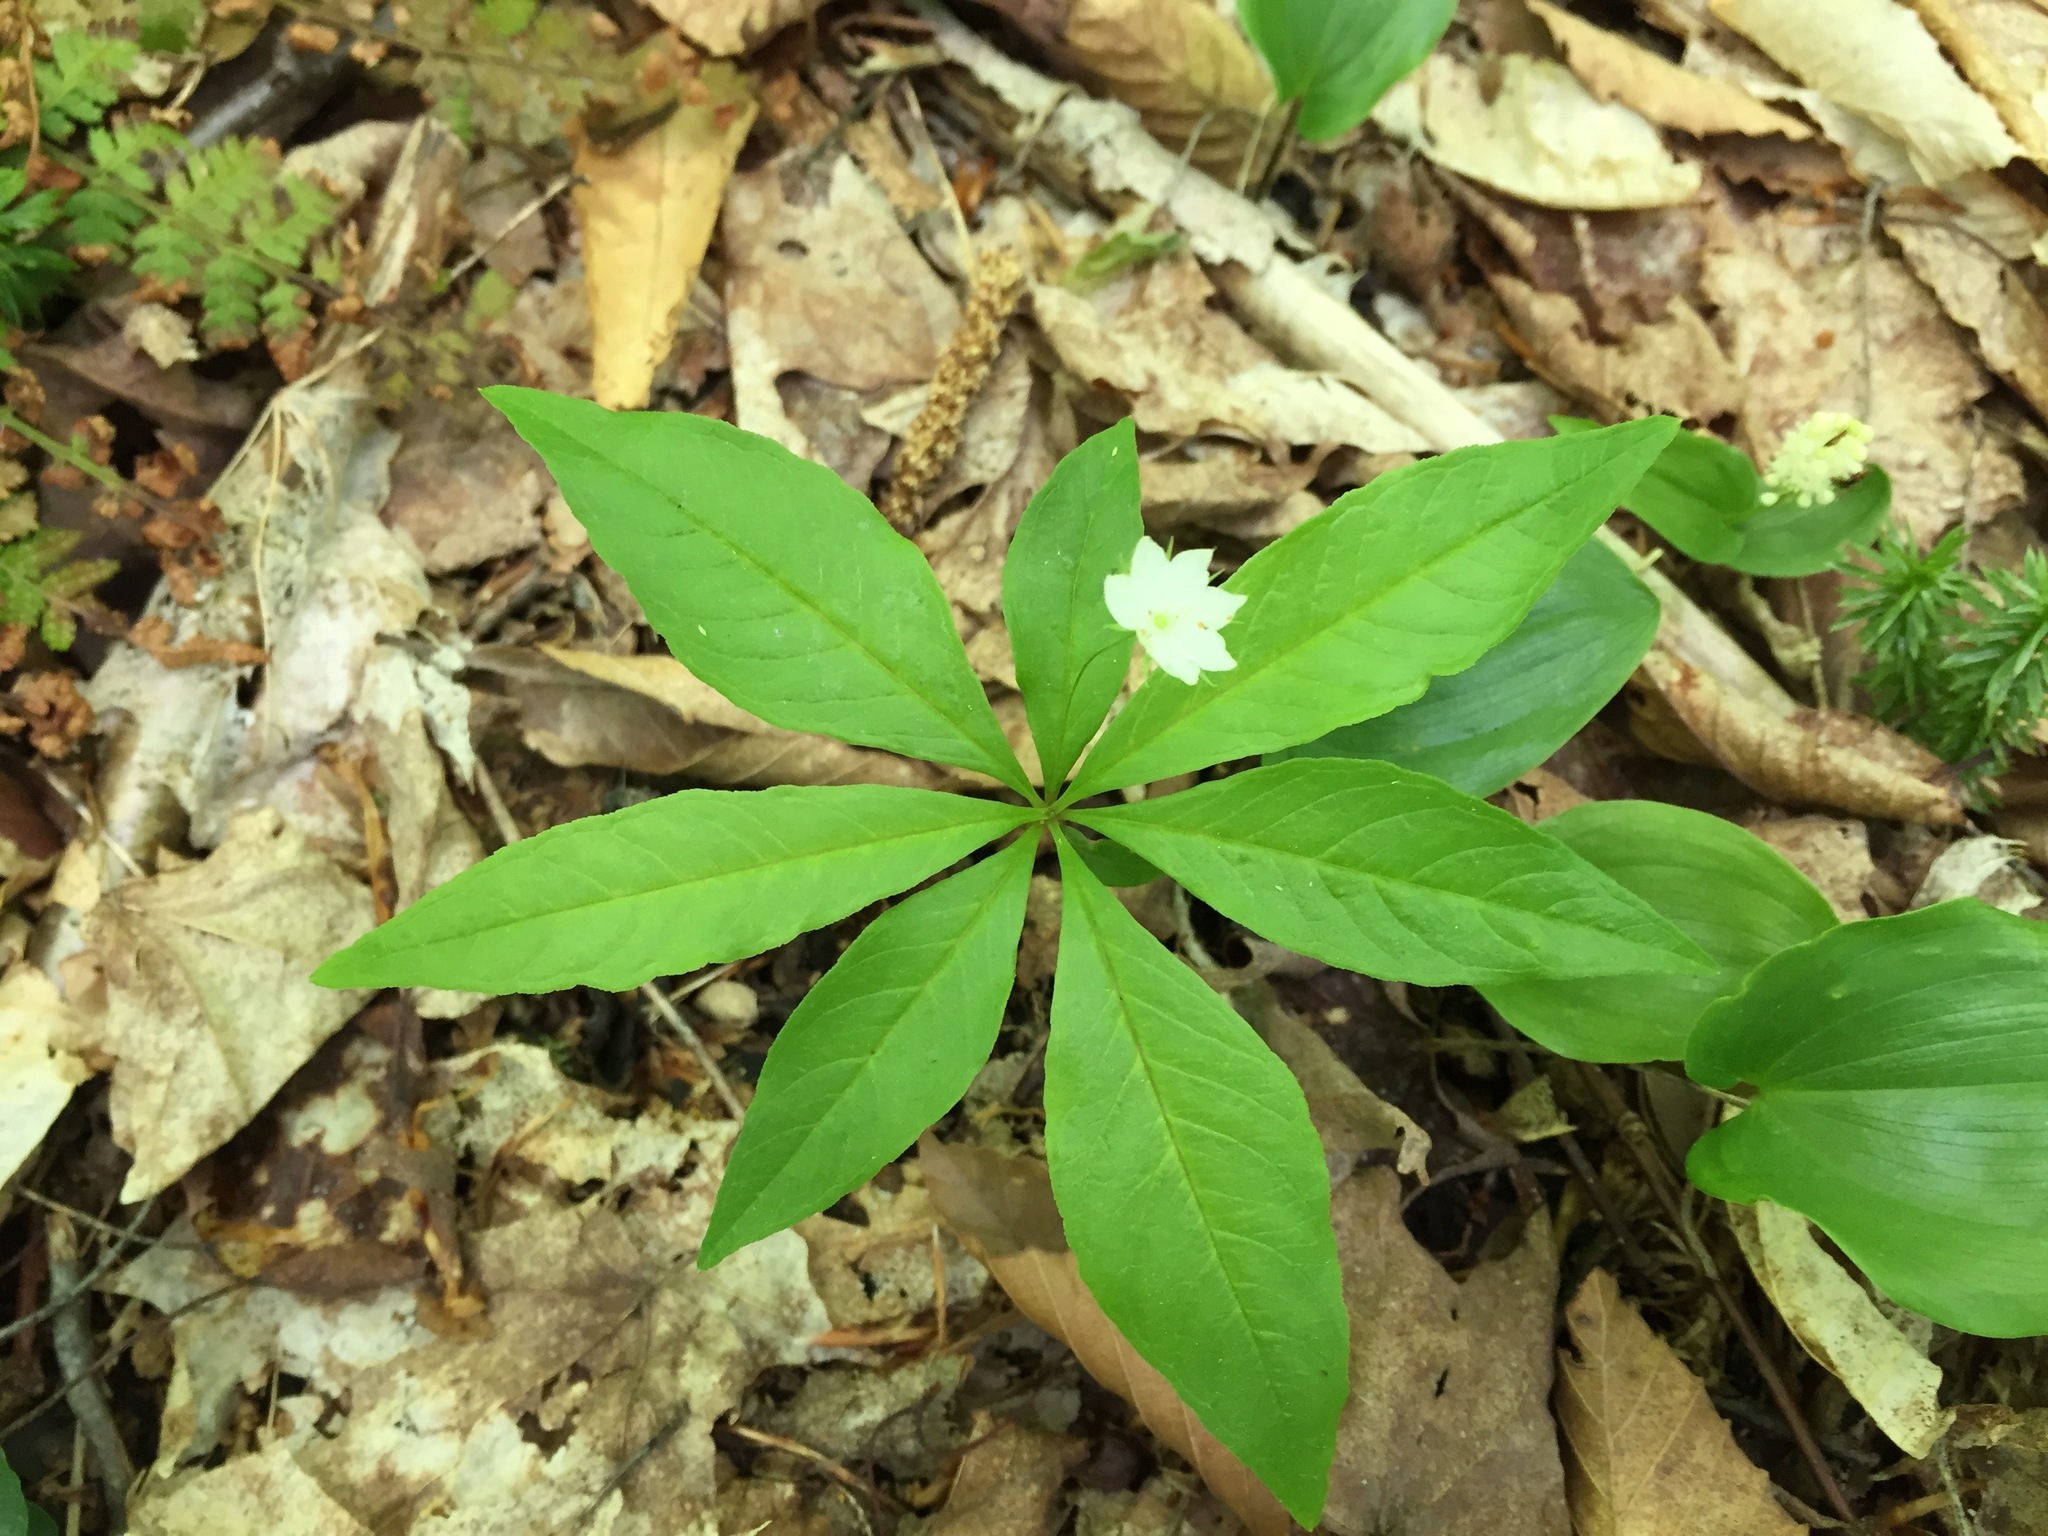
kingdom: Plantae
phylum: Tracheophyta
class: Magnoliopsida
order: Ericales
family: Primulaceae
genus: Lysimachia
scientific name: Lysimachia borealis
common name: American starflower
